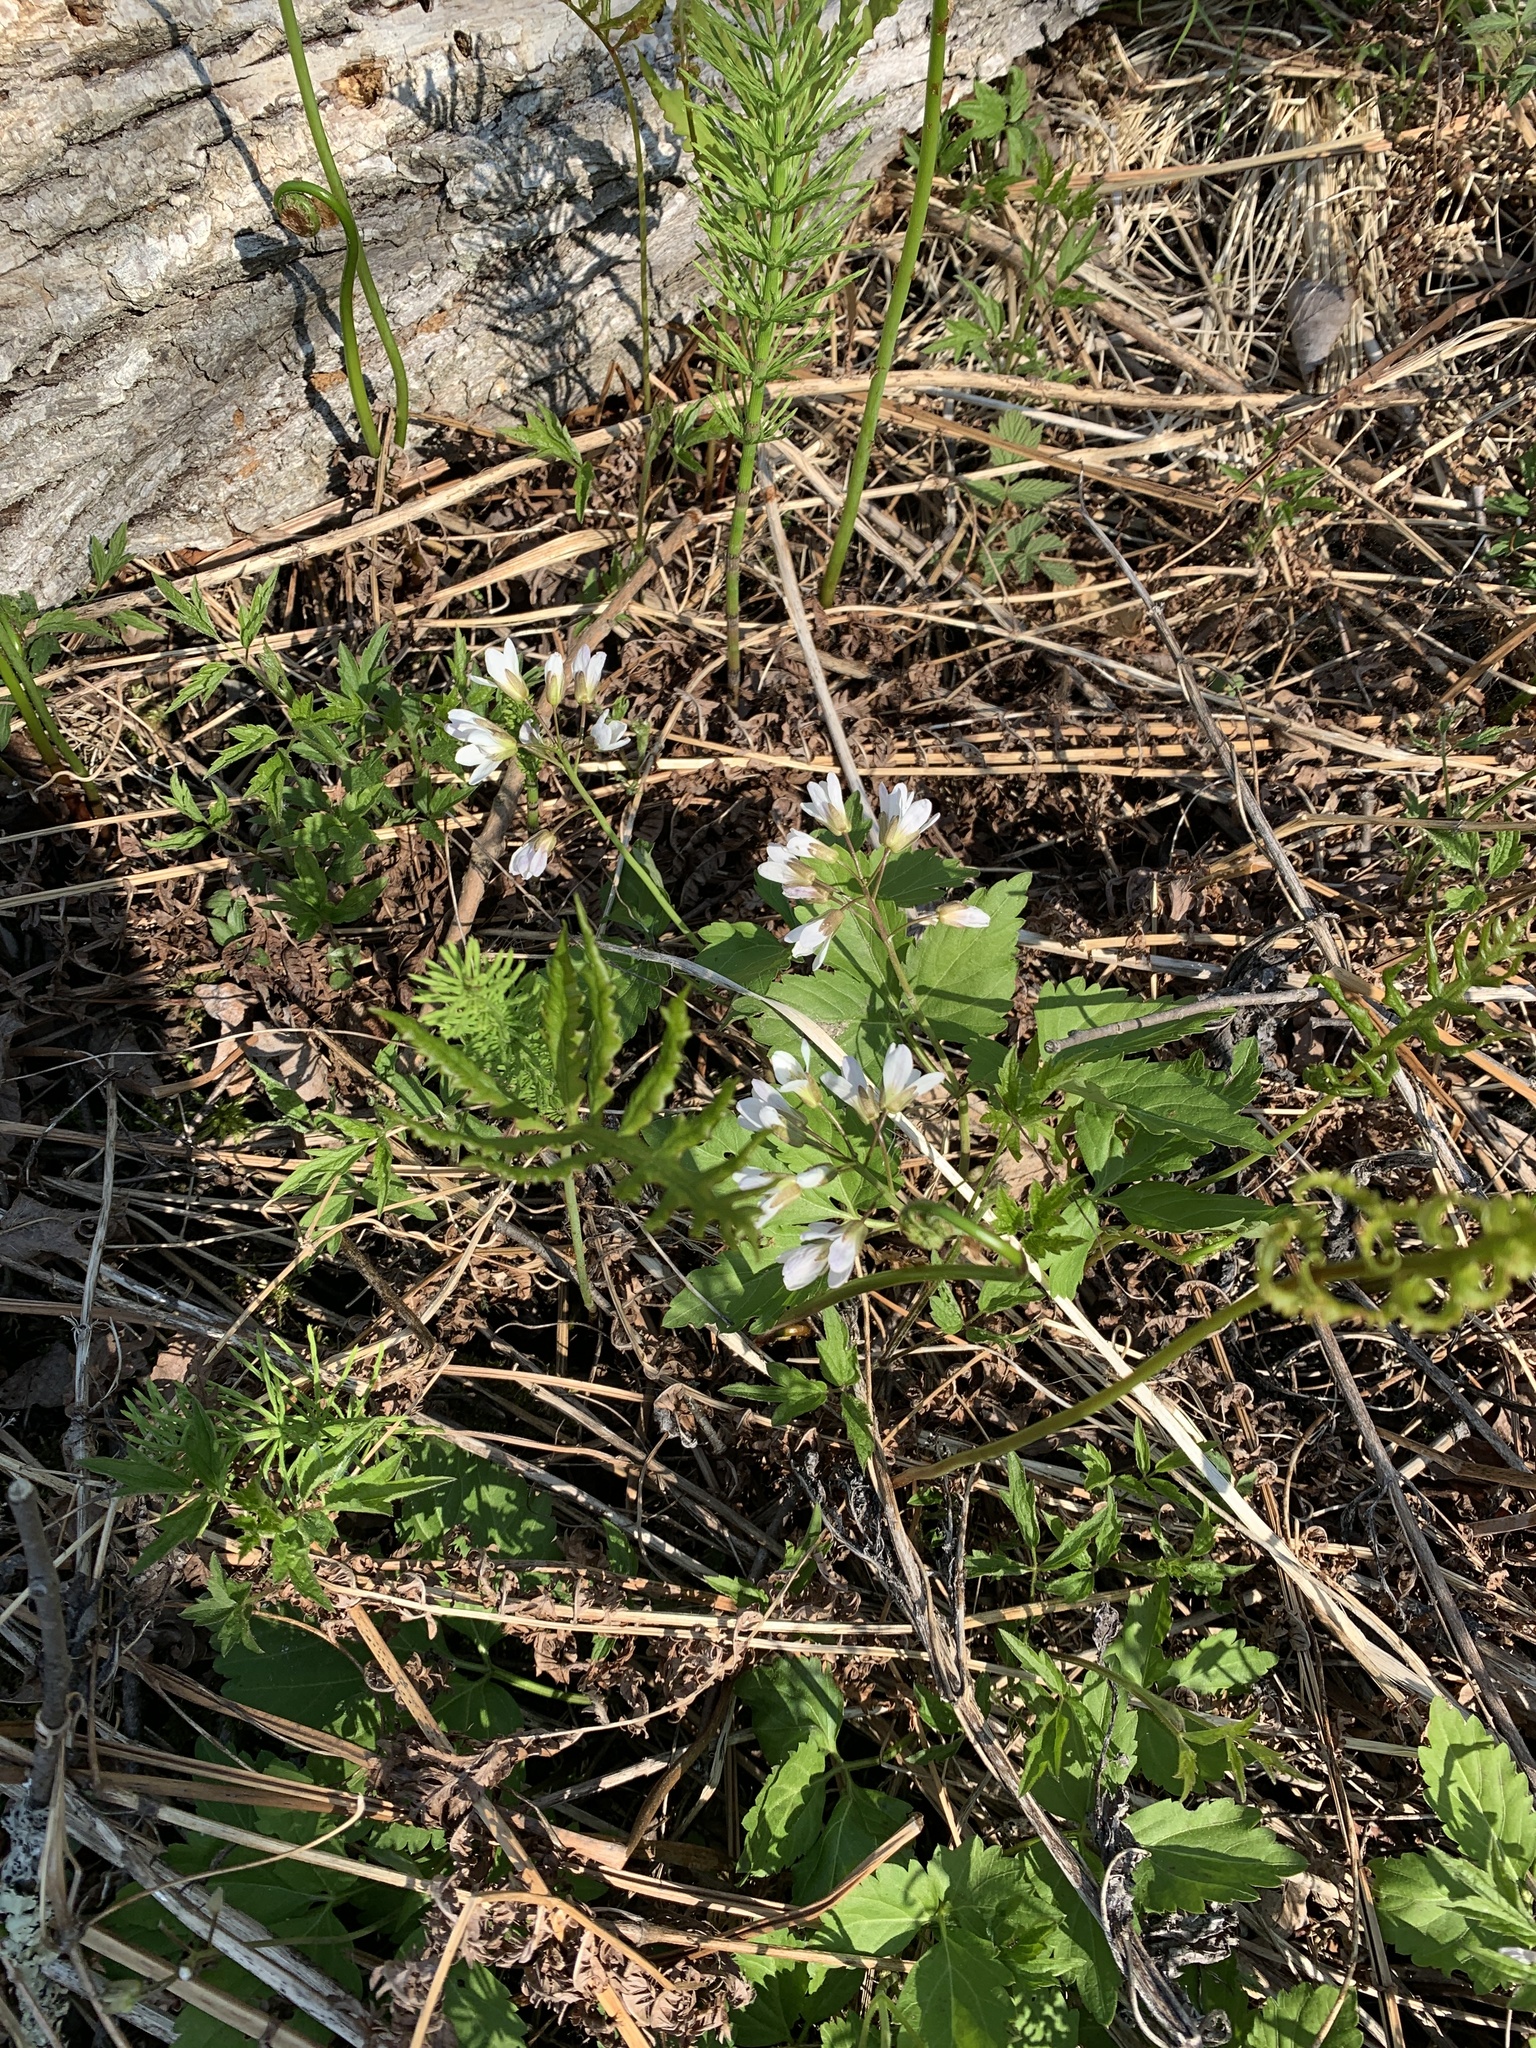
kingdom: Plantae
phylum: Tracheophyta
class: Magnoliopsida
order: Brassicales
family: Brassicaceae
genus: Cardamine
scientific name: Cardamine diphylla
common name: Broad-leaved toothwort
